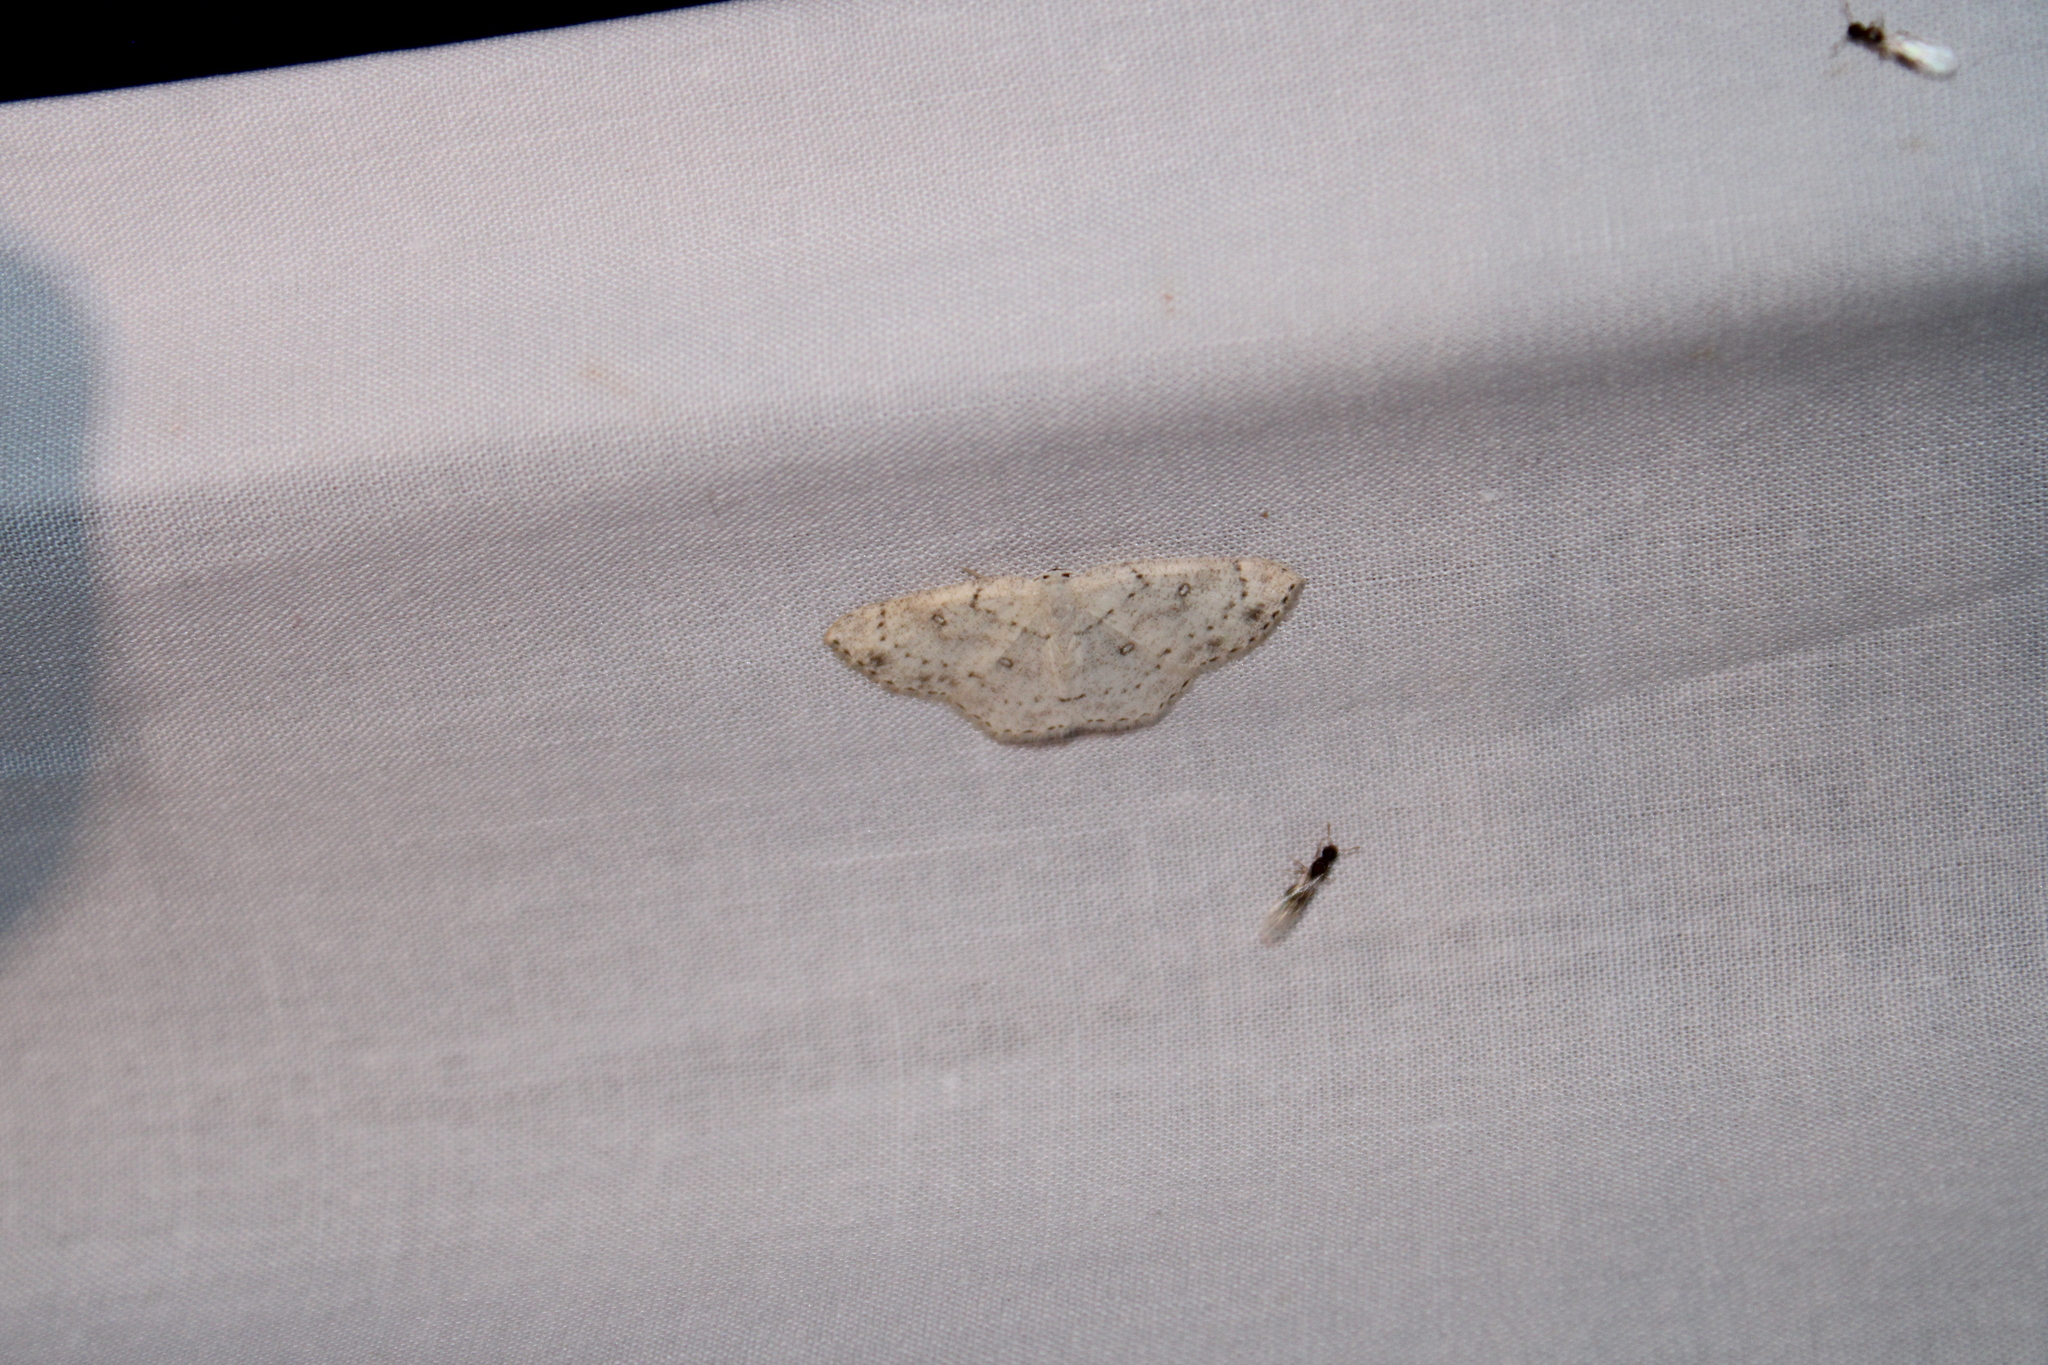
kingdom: Animalia
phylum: Arthropoda
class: Insecta
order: Lepidoptera
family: Geometridae
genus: Cyclophora
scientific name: Cyclophora pendulinaria
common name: Sweet fern geometer
